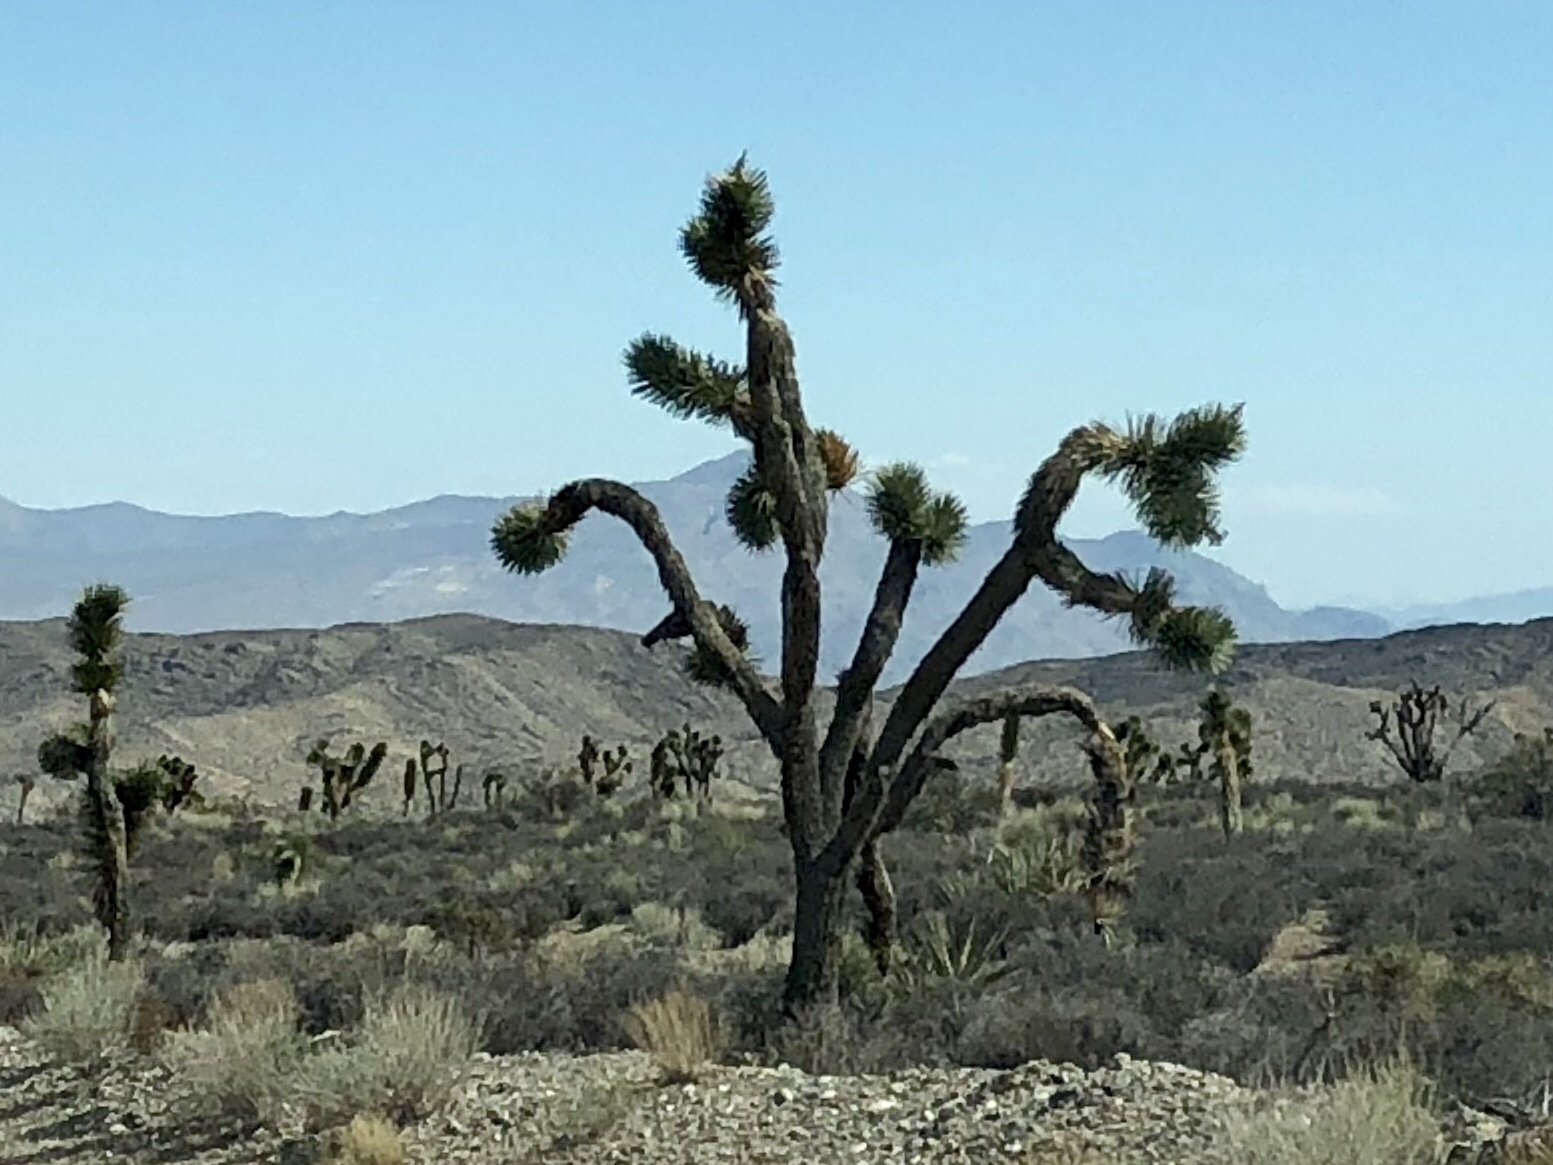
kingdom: Plantae
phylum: Tracheophyta
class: Liliopsida
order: Asparagales
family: Asparagaceae
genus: Yucca
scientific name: Yucca brevifolia
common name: Joshua tree
